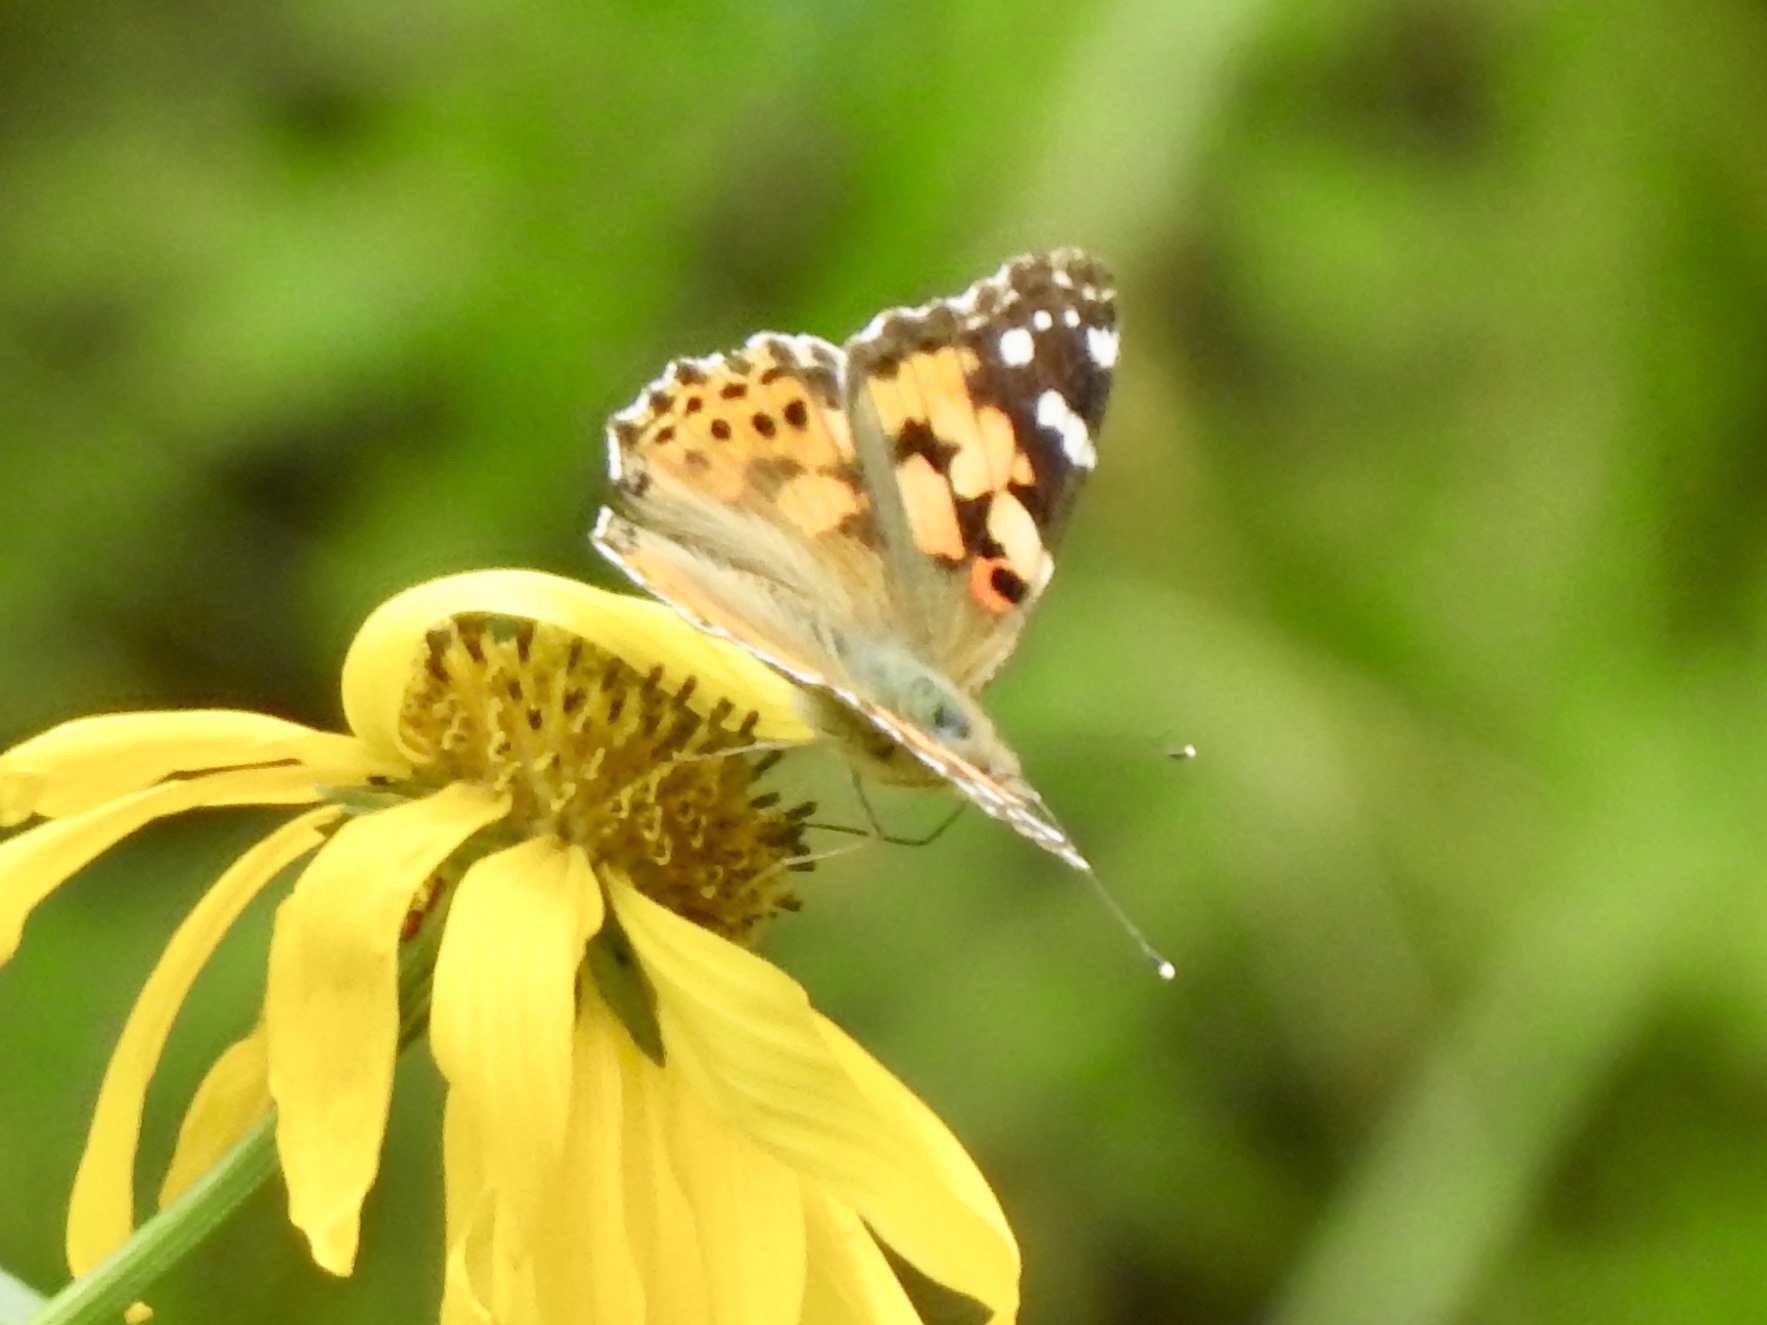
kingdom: Animalia
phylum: Arthropoda
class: Insecta
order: Lepidoptera
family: Nymphalidae
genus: Vanessa
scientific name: Vanessa cardui
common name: Painted lady
